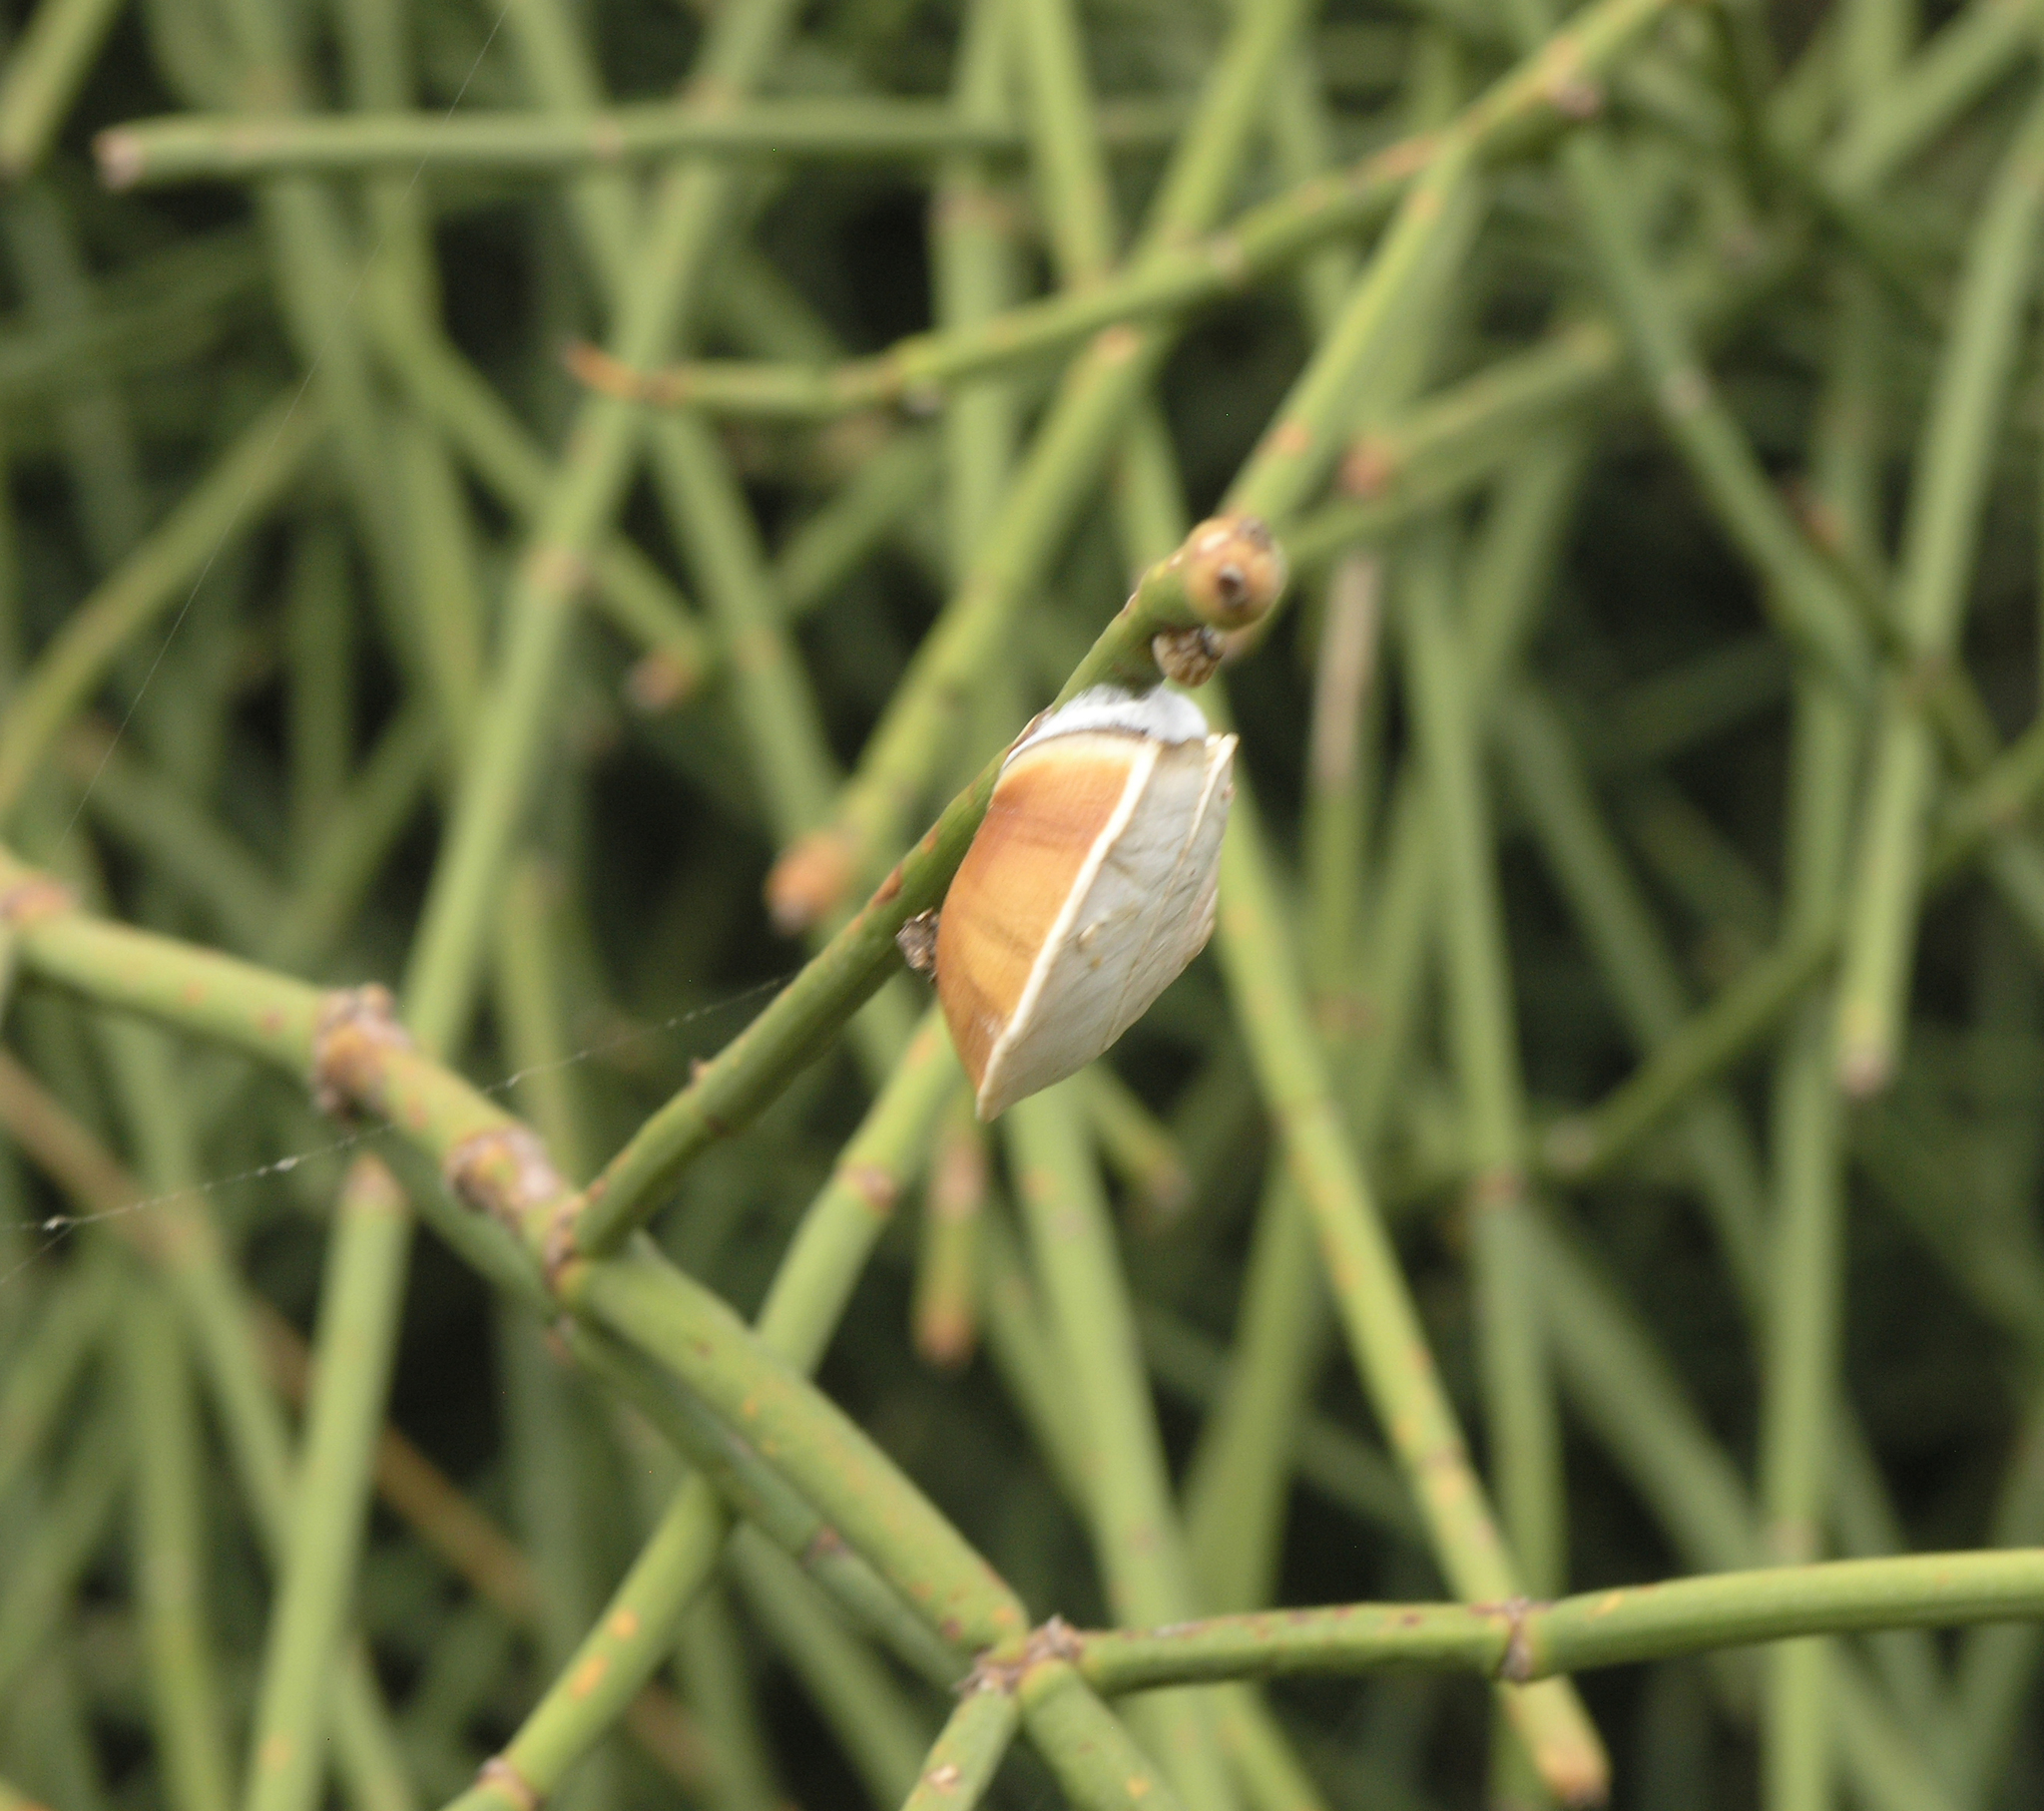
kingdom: Animalia
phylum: Mollusca
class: Gastropoda
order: Stylommatophora
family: Helicidae
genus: Theba
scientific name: Theba subdentata
